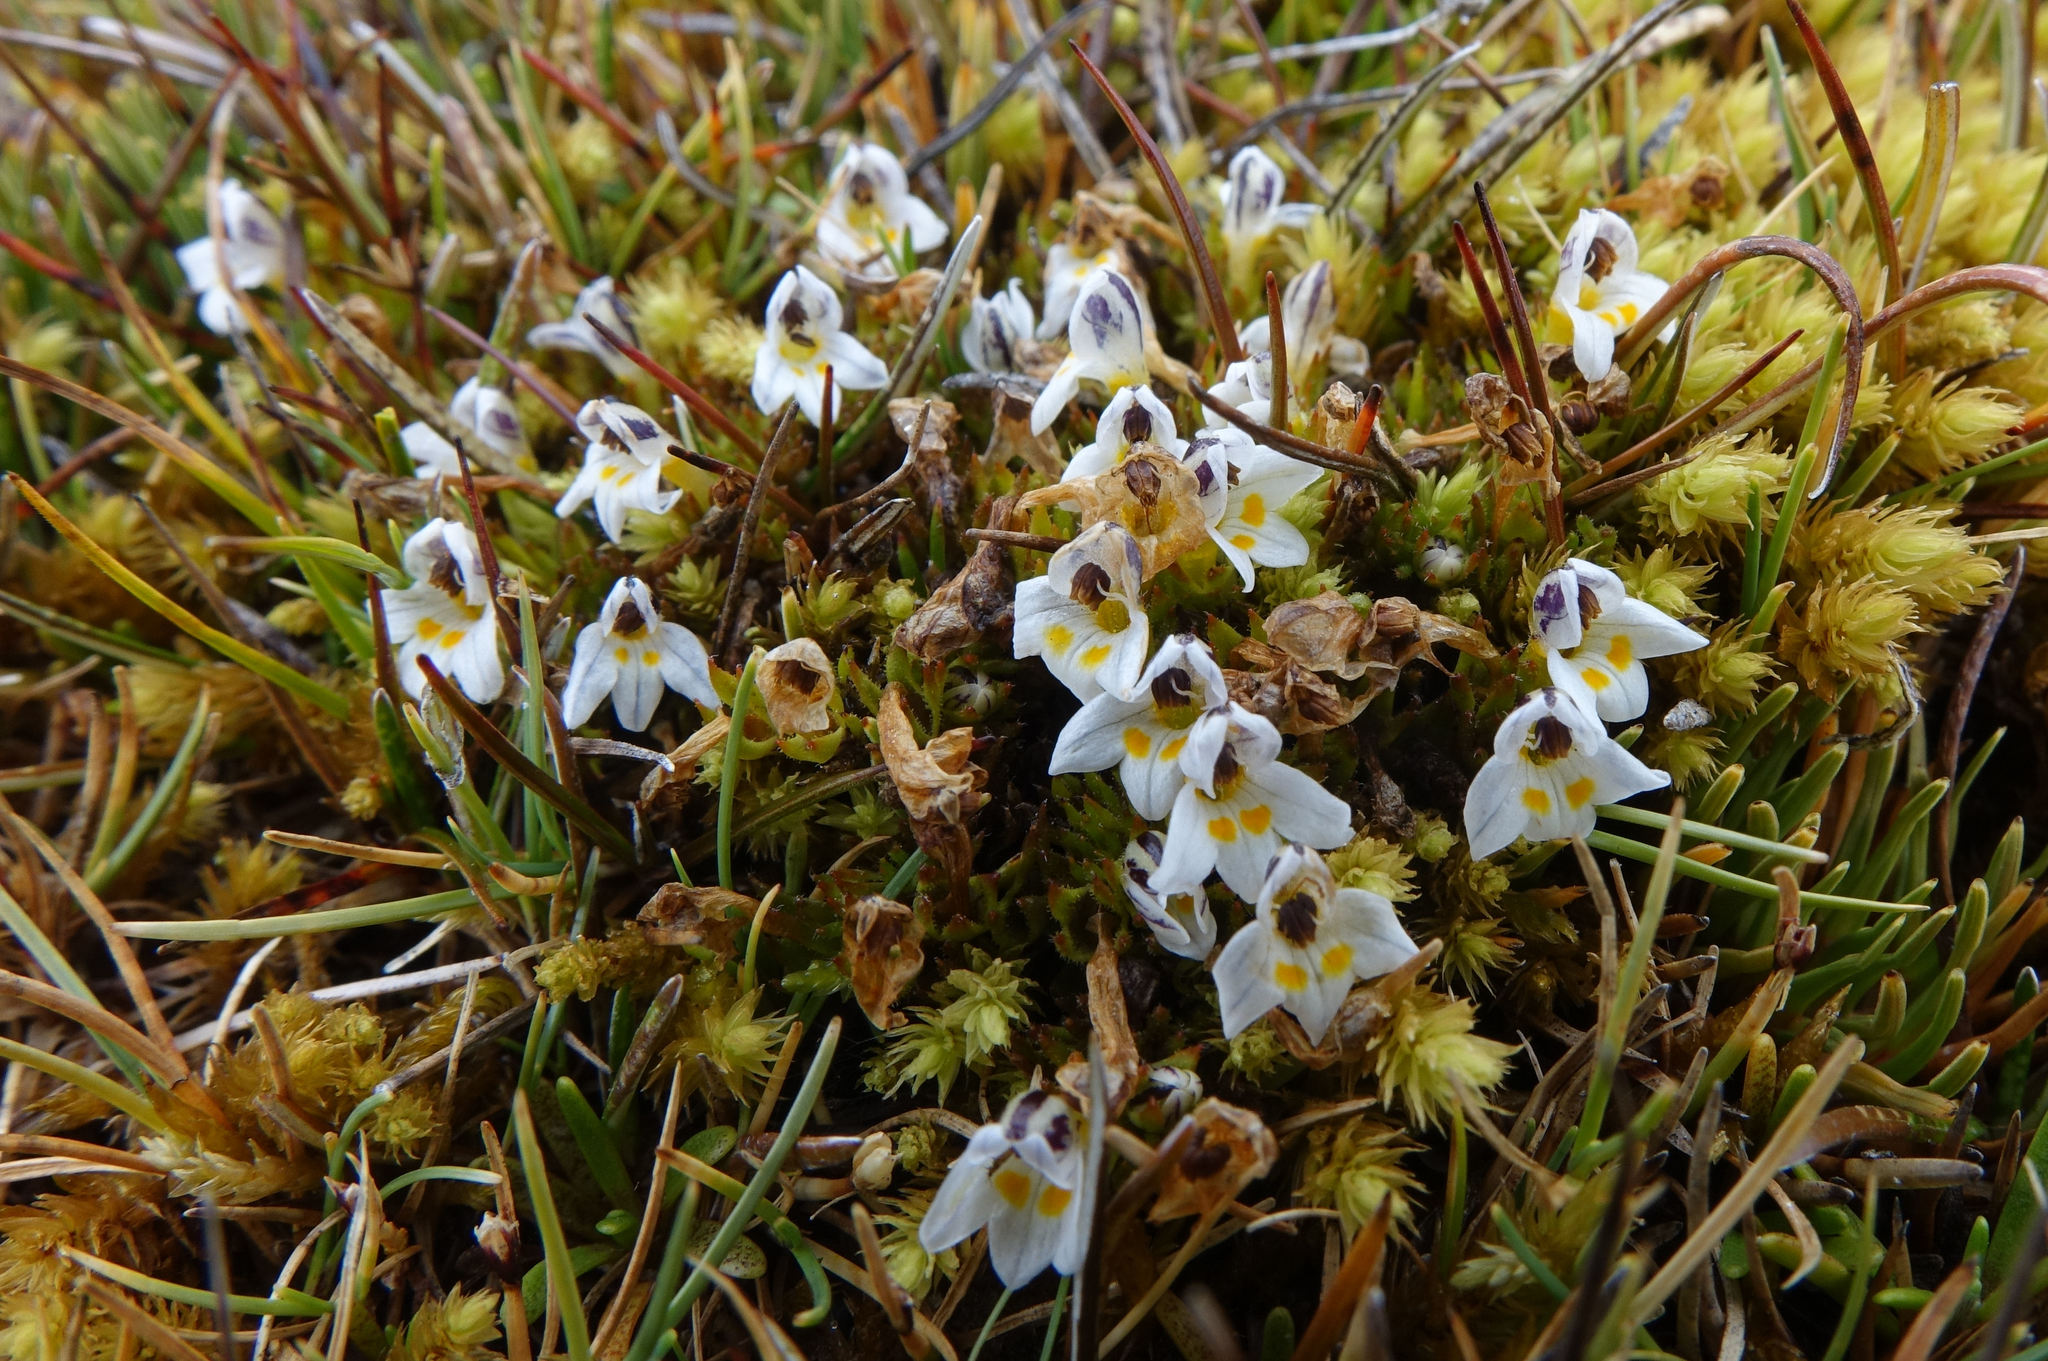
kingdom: Plantae
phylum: Tracheophyta
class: Magnoliopsida
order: Lamiales
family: Orobanchaceae
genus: Euphrasia
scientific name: Euphrasia dyeri
